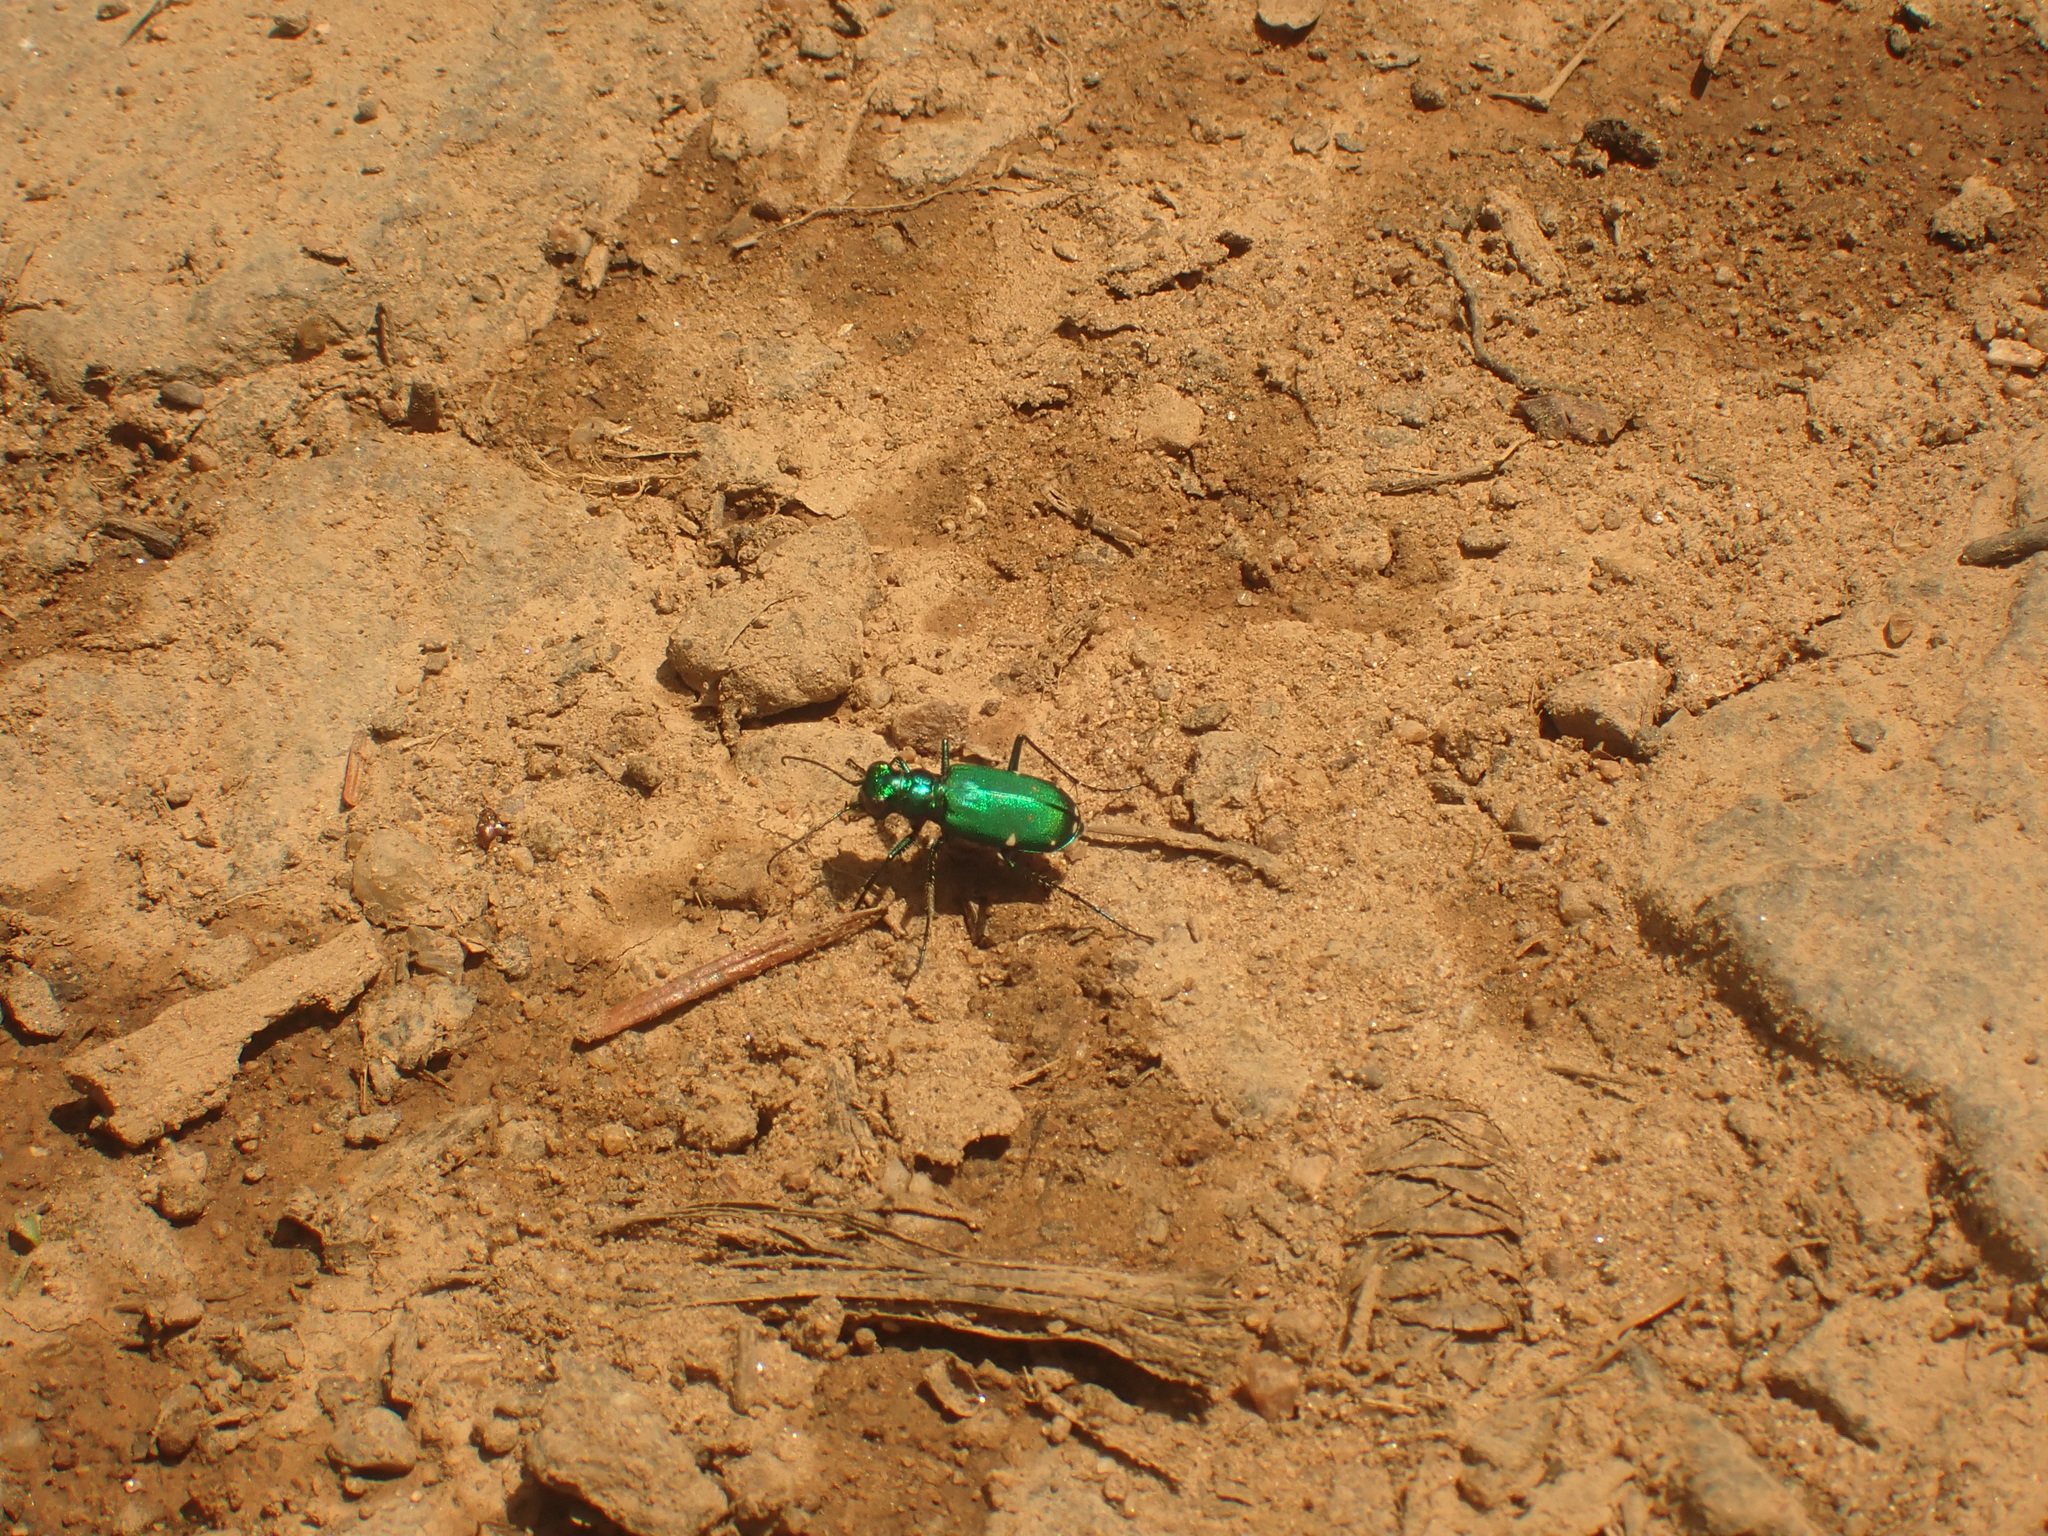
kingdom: Animalia
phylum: Arthropoda
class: Insecta
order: Coleoptera
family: Carabidae
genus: Cicindela
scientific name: Cicindela sexguttata
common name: Six-spotted tiger beetle
